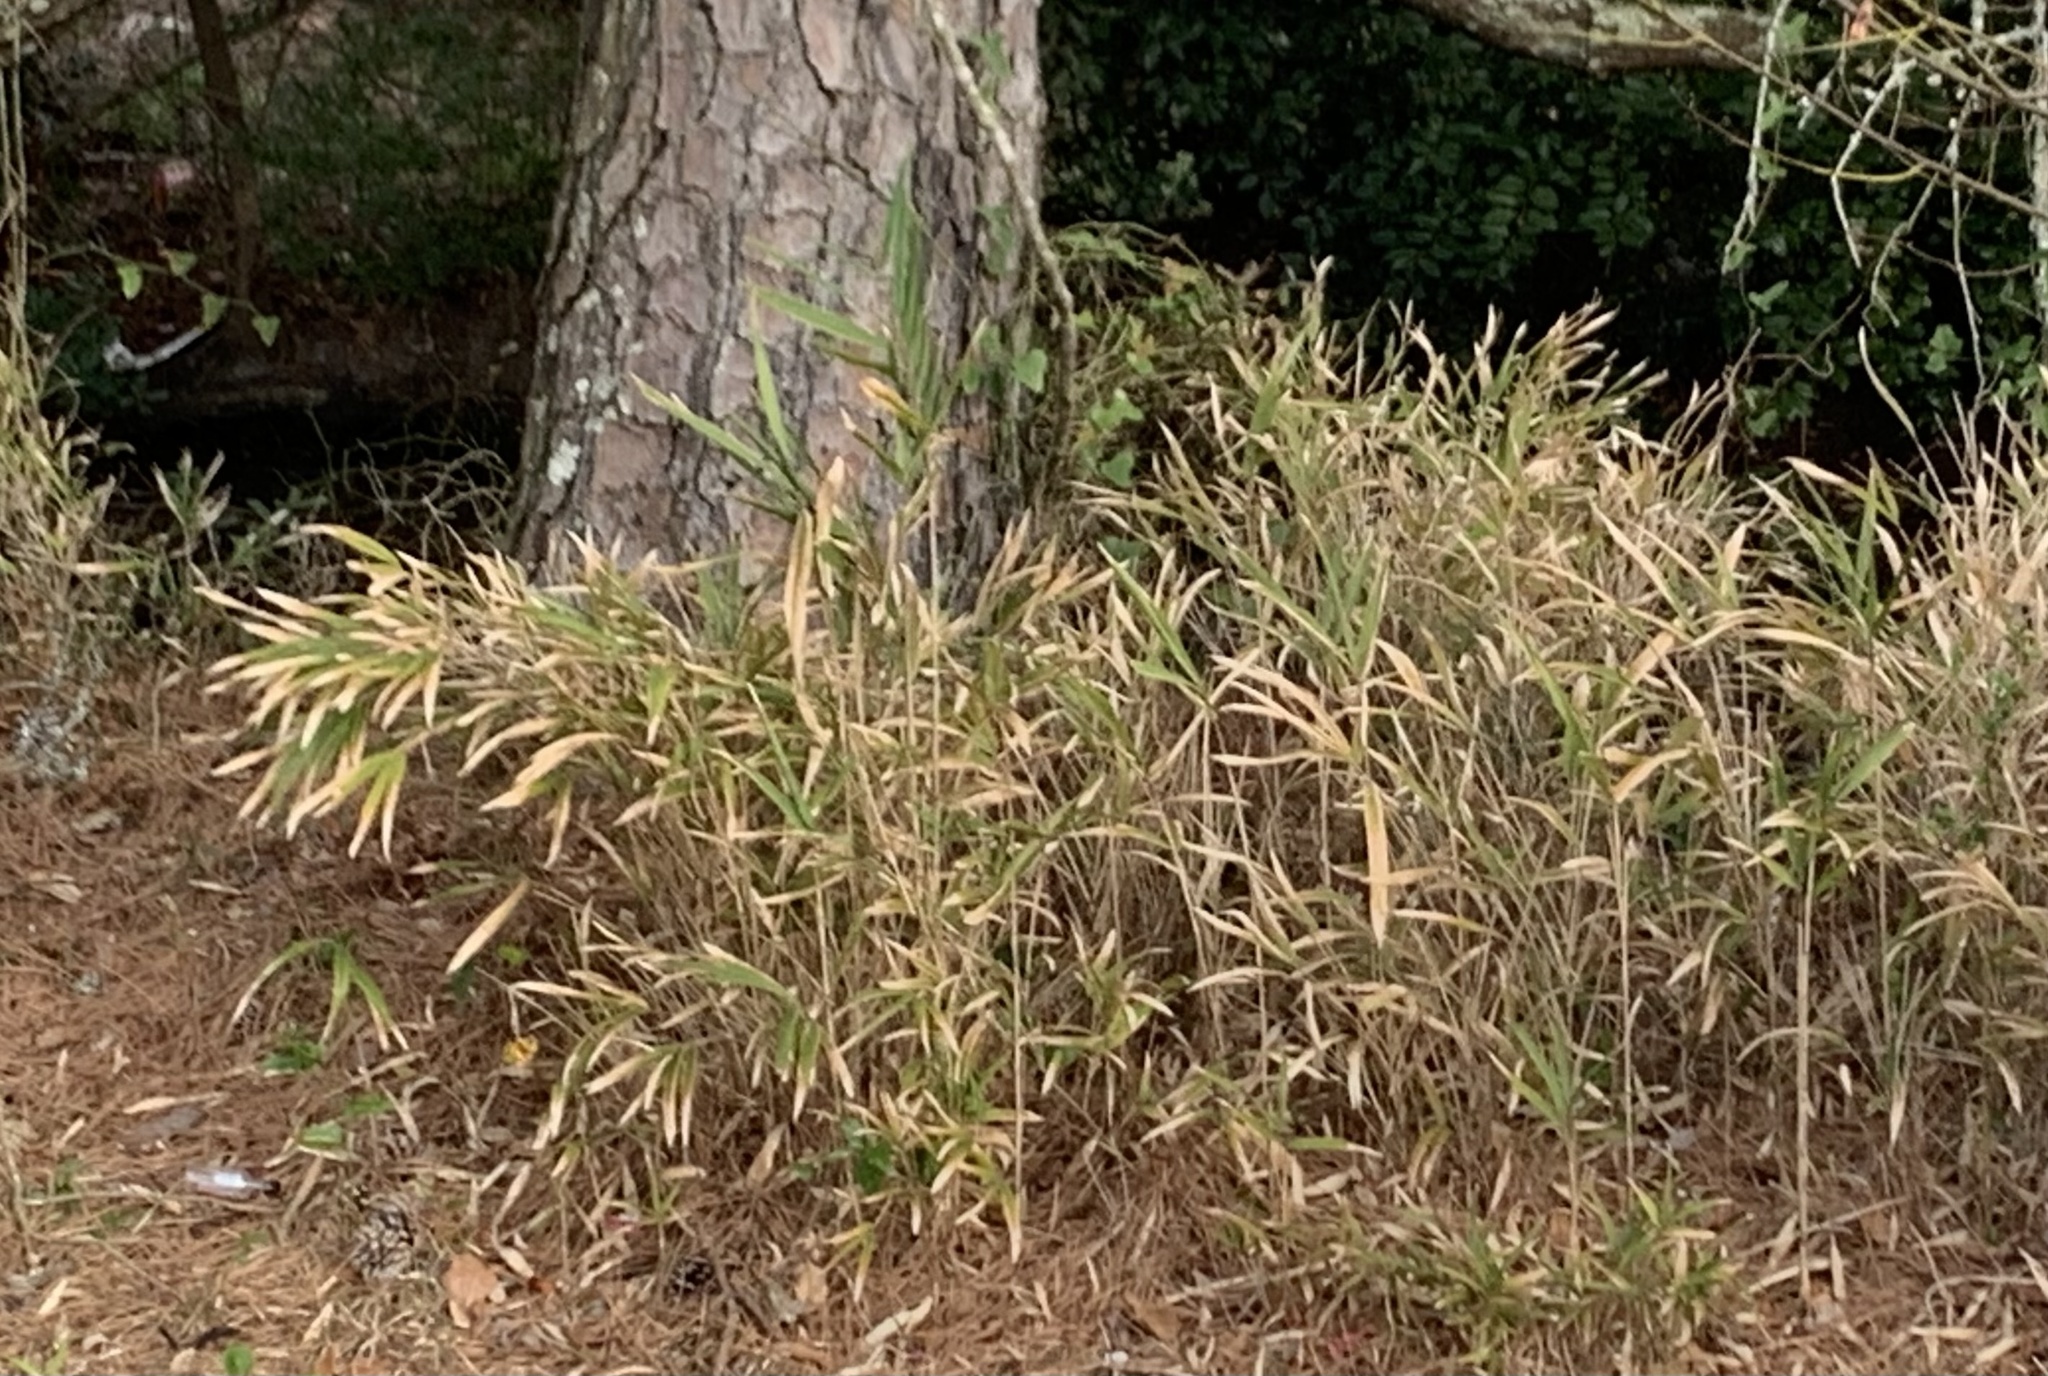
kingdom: Plantae
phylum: Tracheophyta
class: Liliopsida
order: Poales
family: Poaceae
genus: Arundinaria
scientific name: Arundinaria tecta
